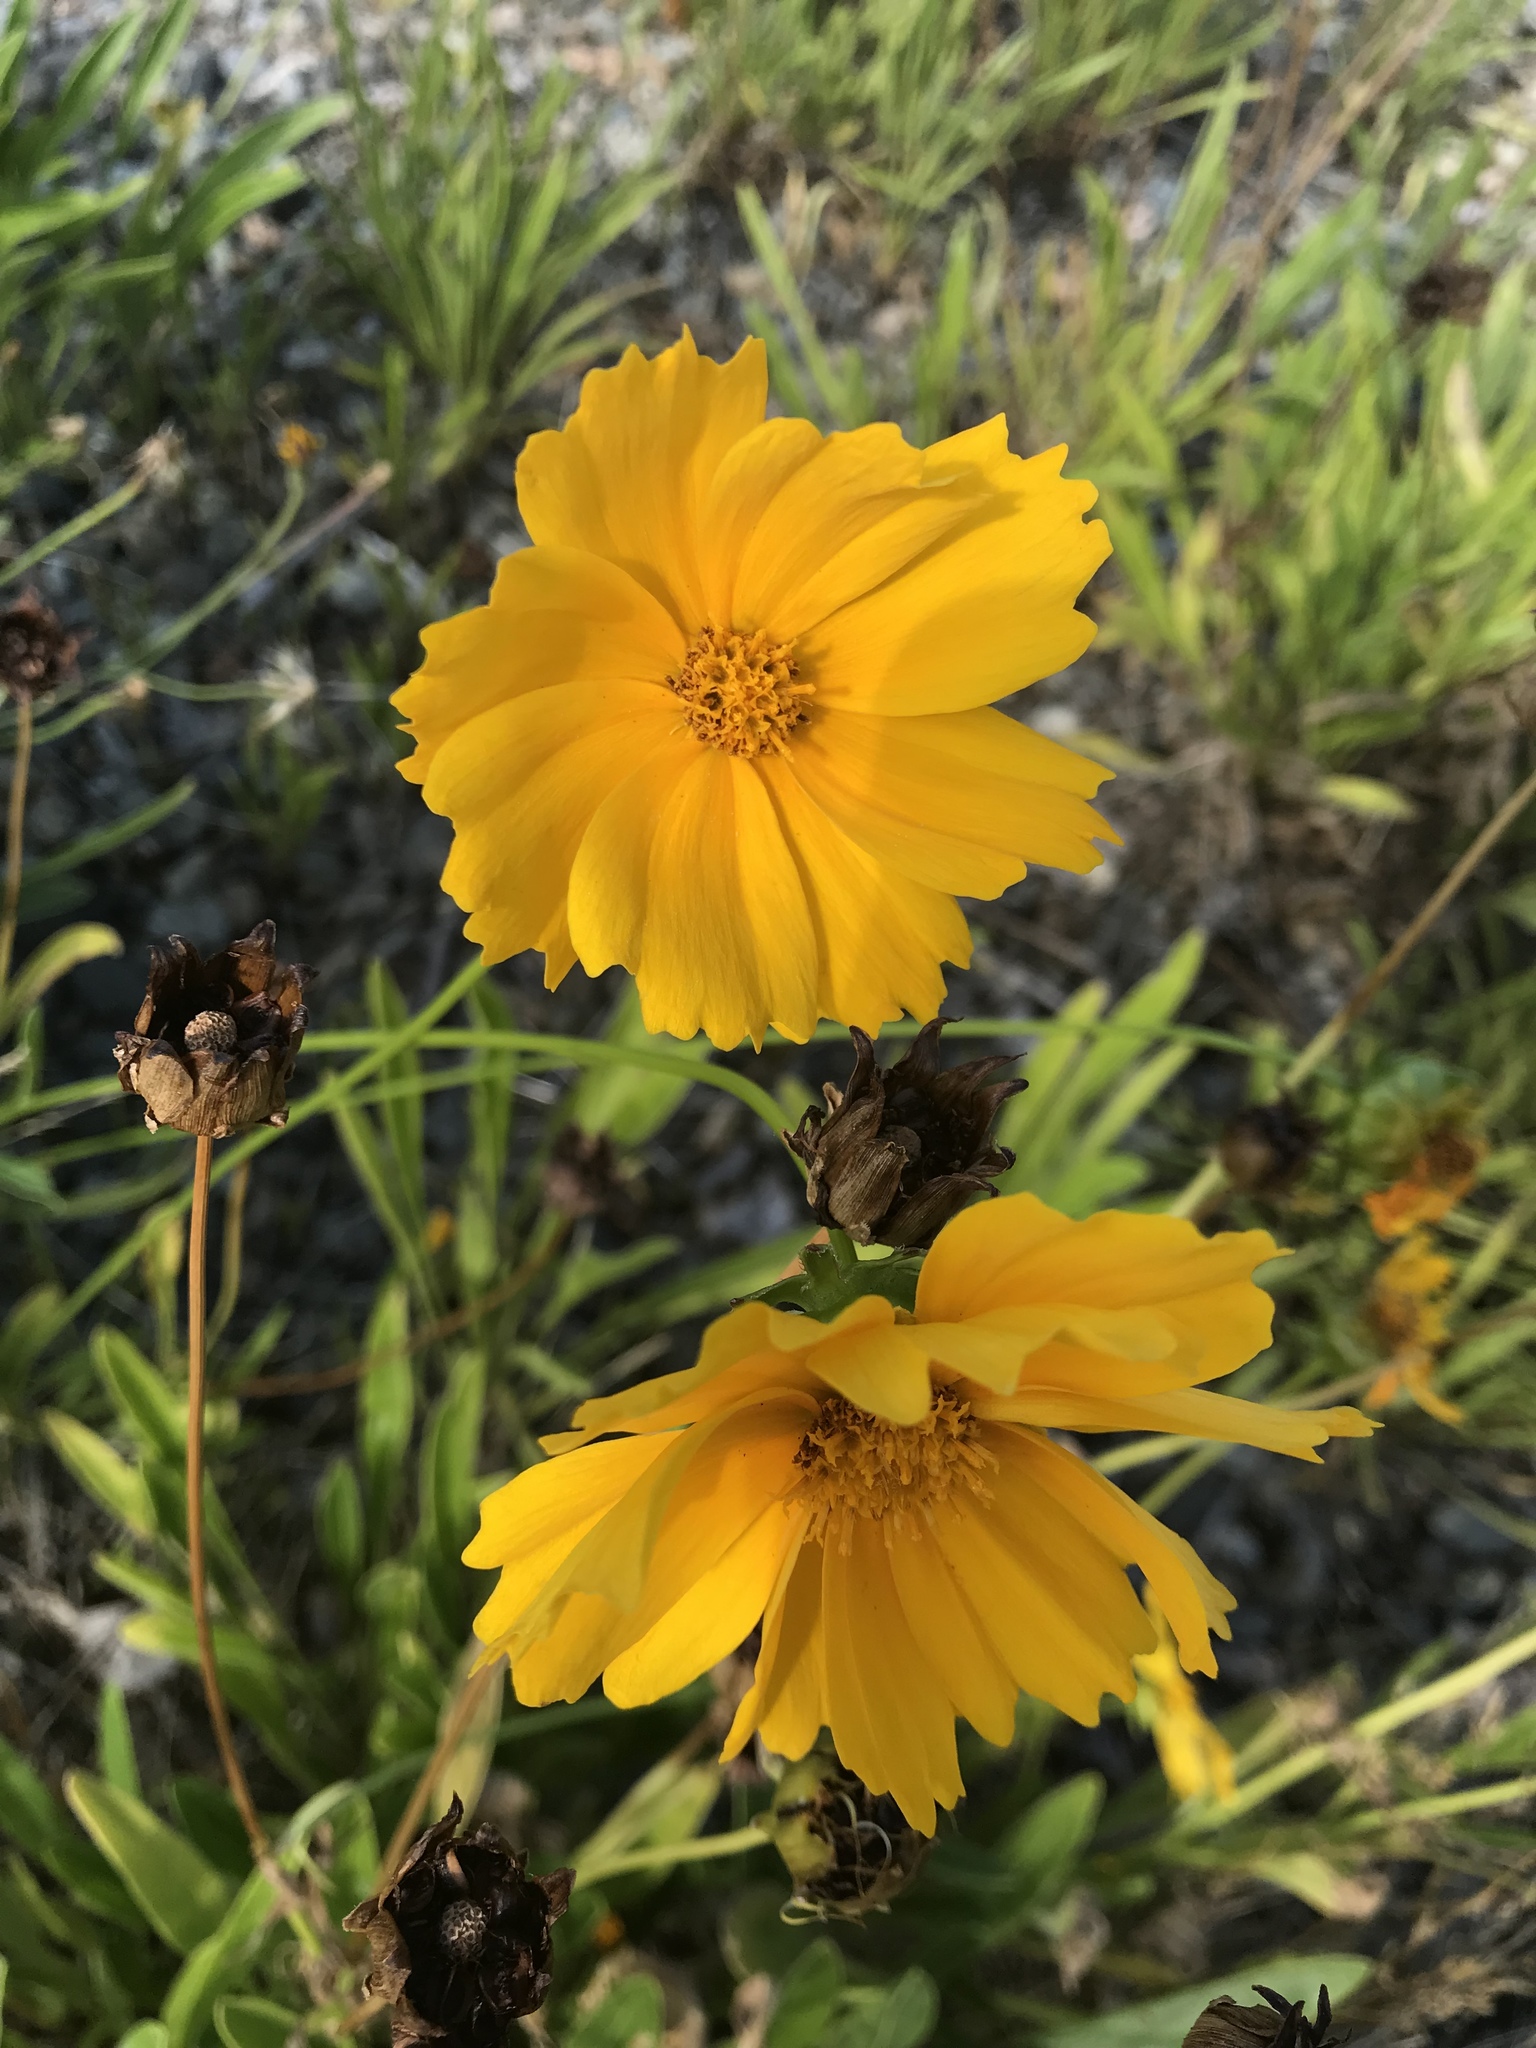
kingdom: Plantae
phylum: Tracheophyta
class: Magnoliopsida
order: Asterales
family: Asteraceae
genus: Coreopsis
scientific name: Coreopsis lanceolata
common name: Garden coreopsis
